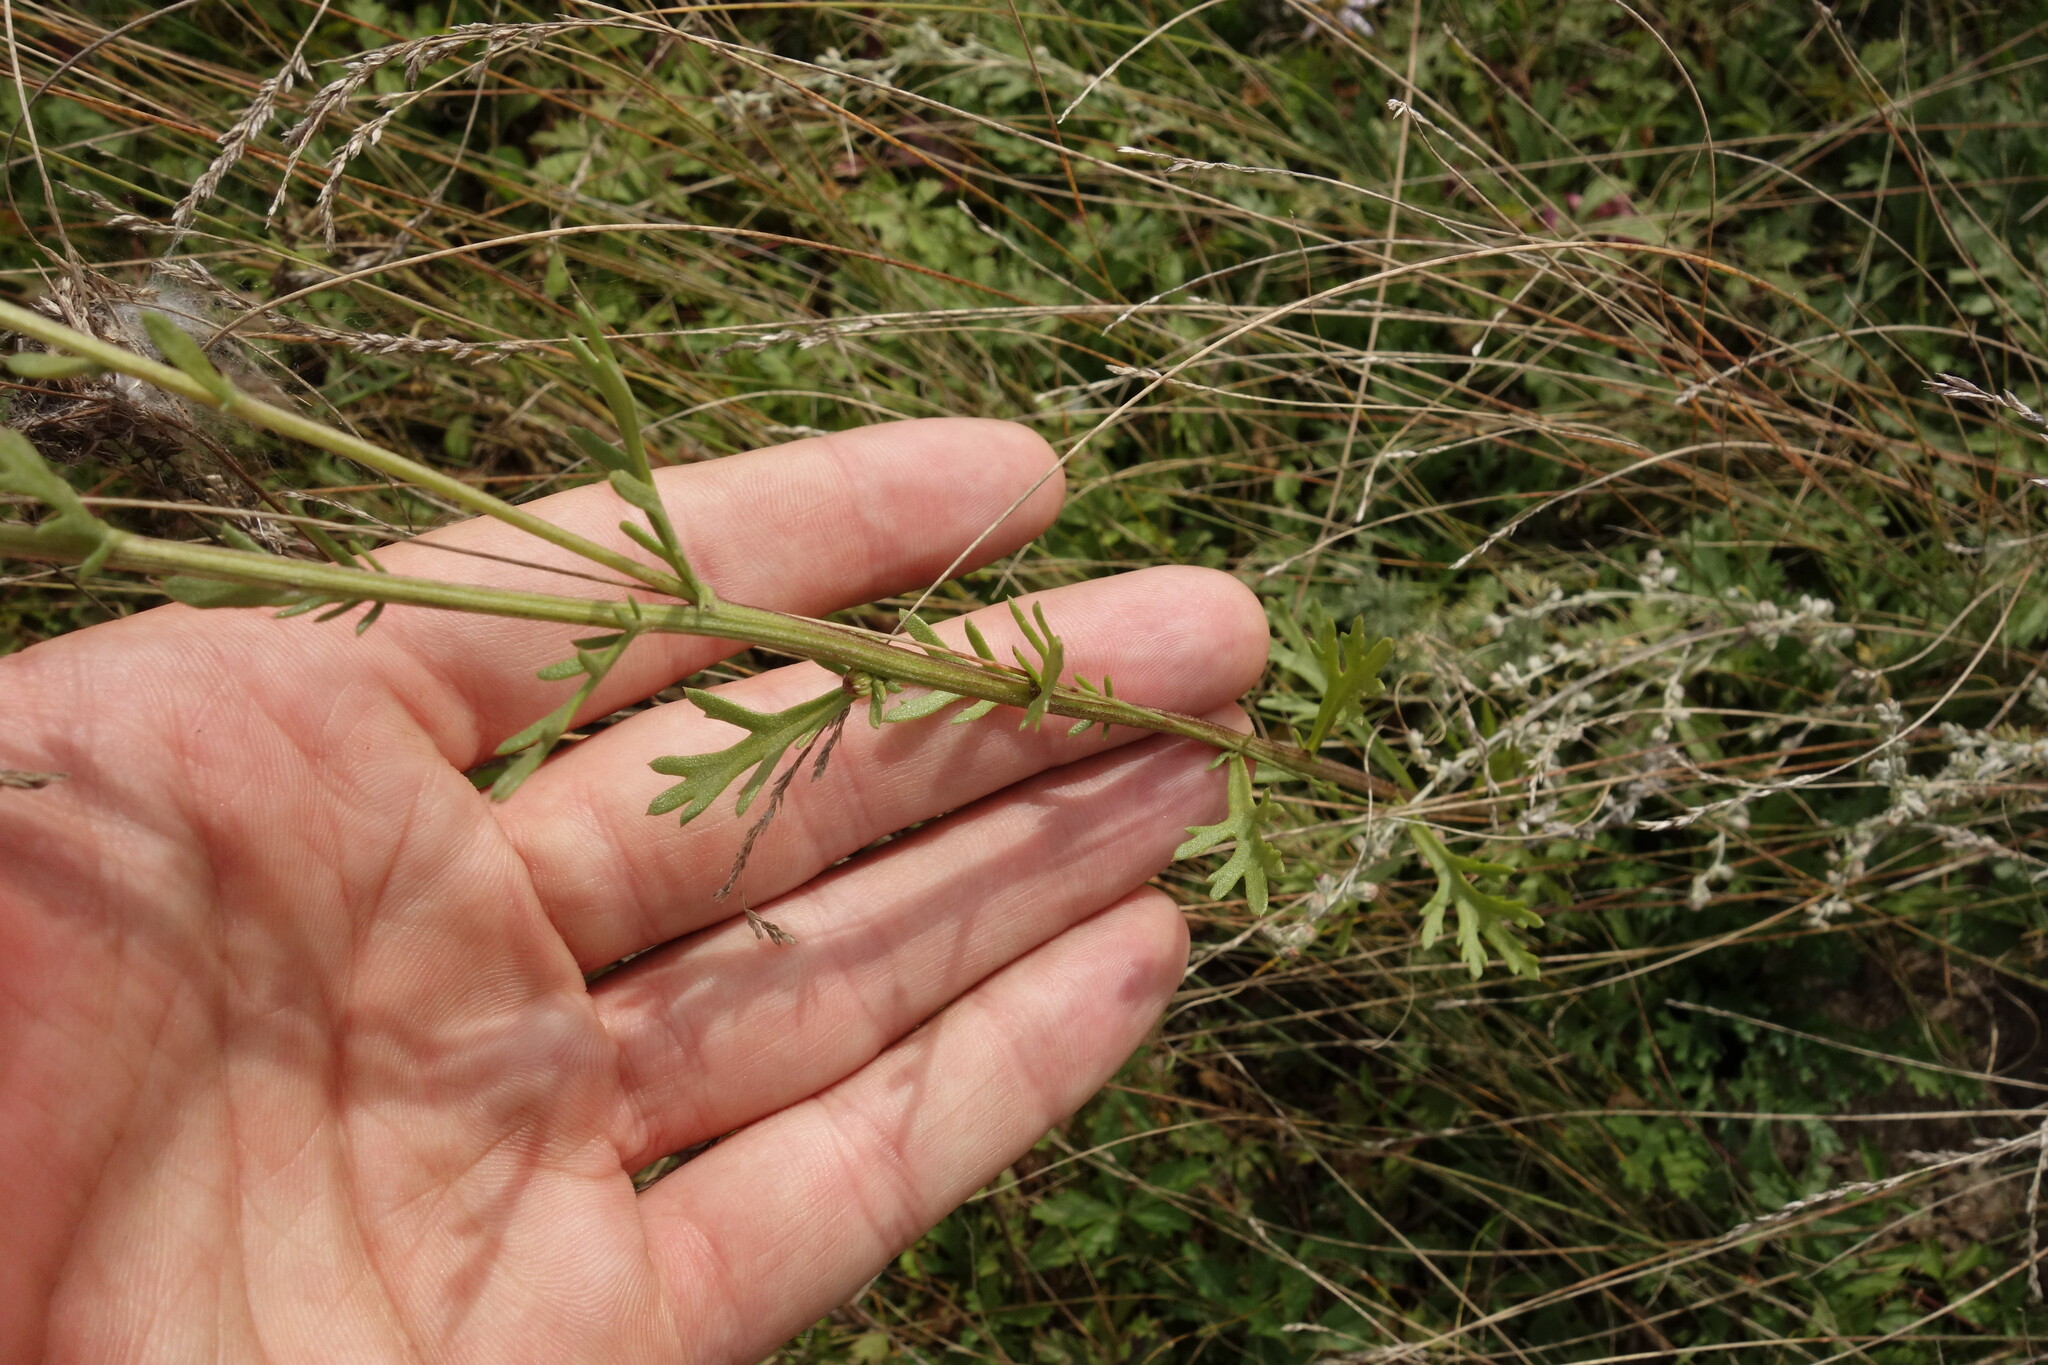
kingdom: Plantae
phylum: Tracheophyta
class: Magnoliopsida
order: Asterales
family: Asteraceae
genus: Chrysanthemum
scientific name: Chrysanthemum zawadzkii
